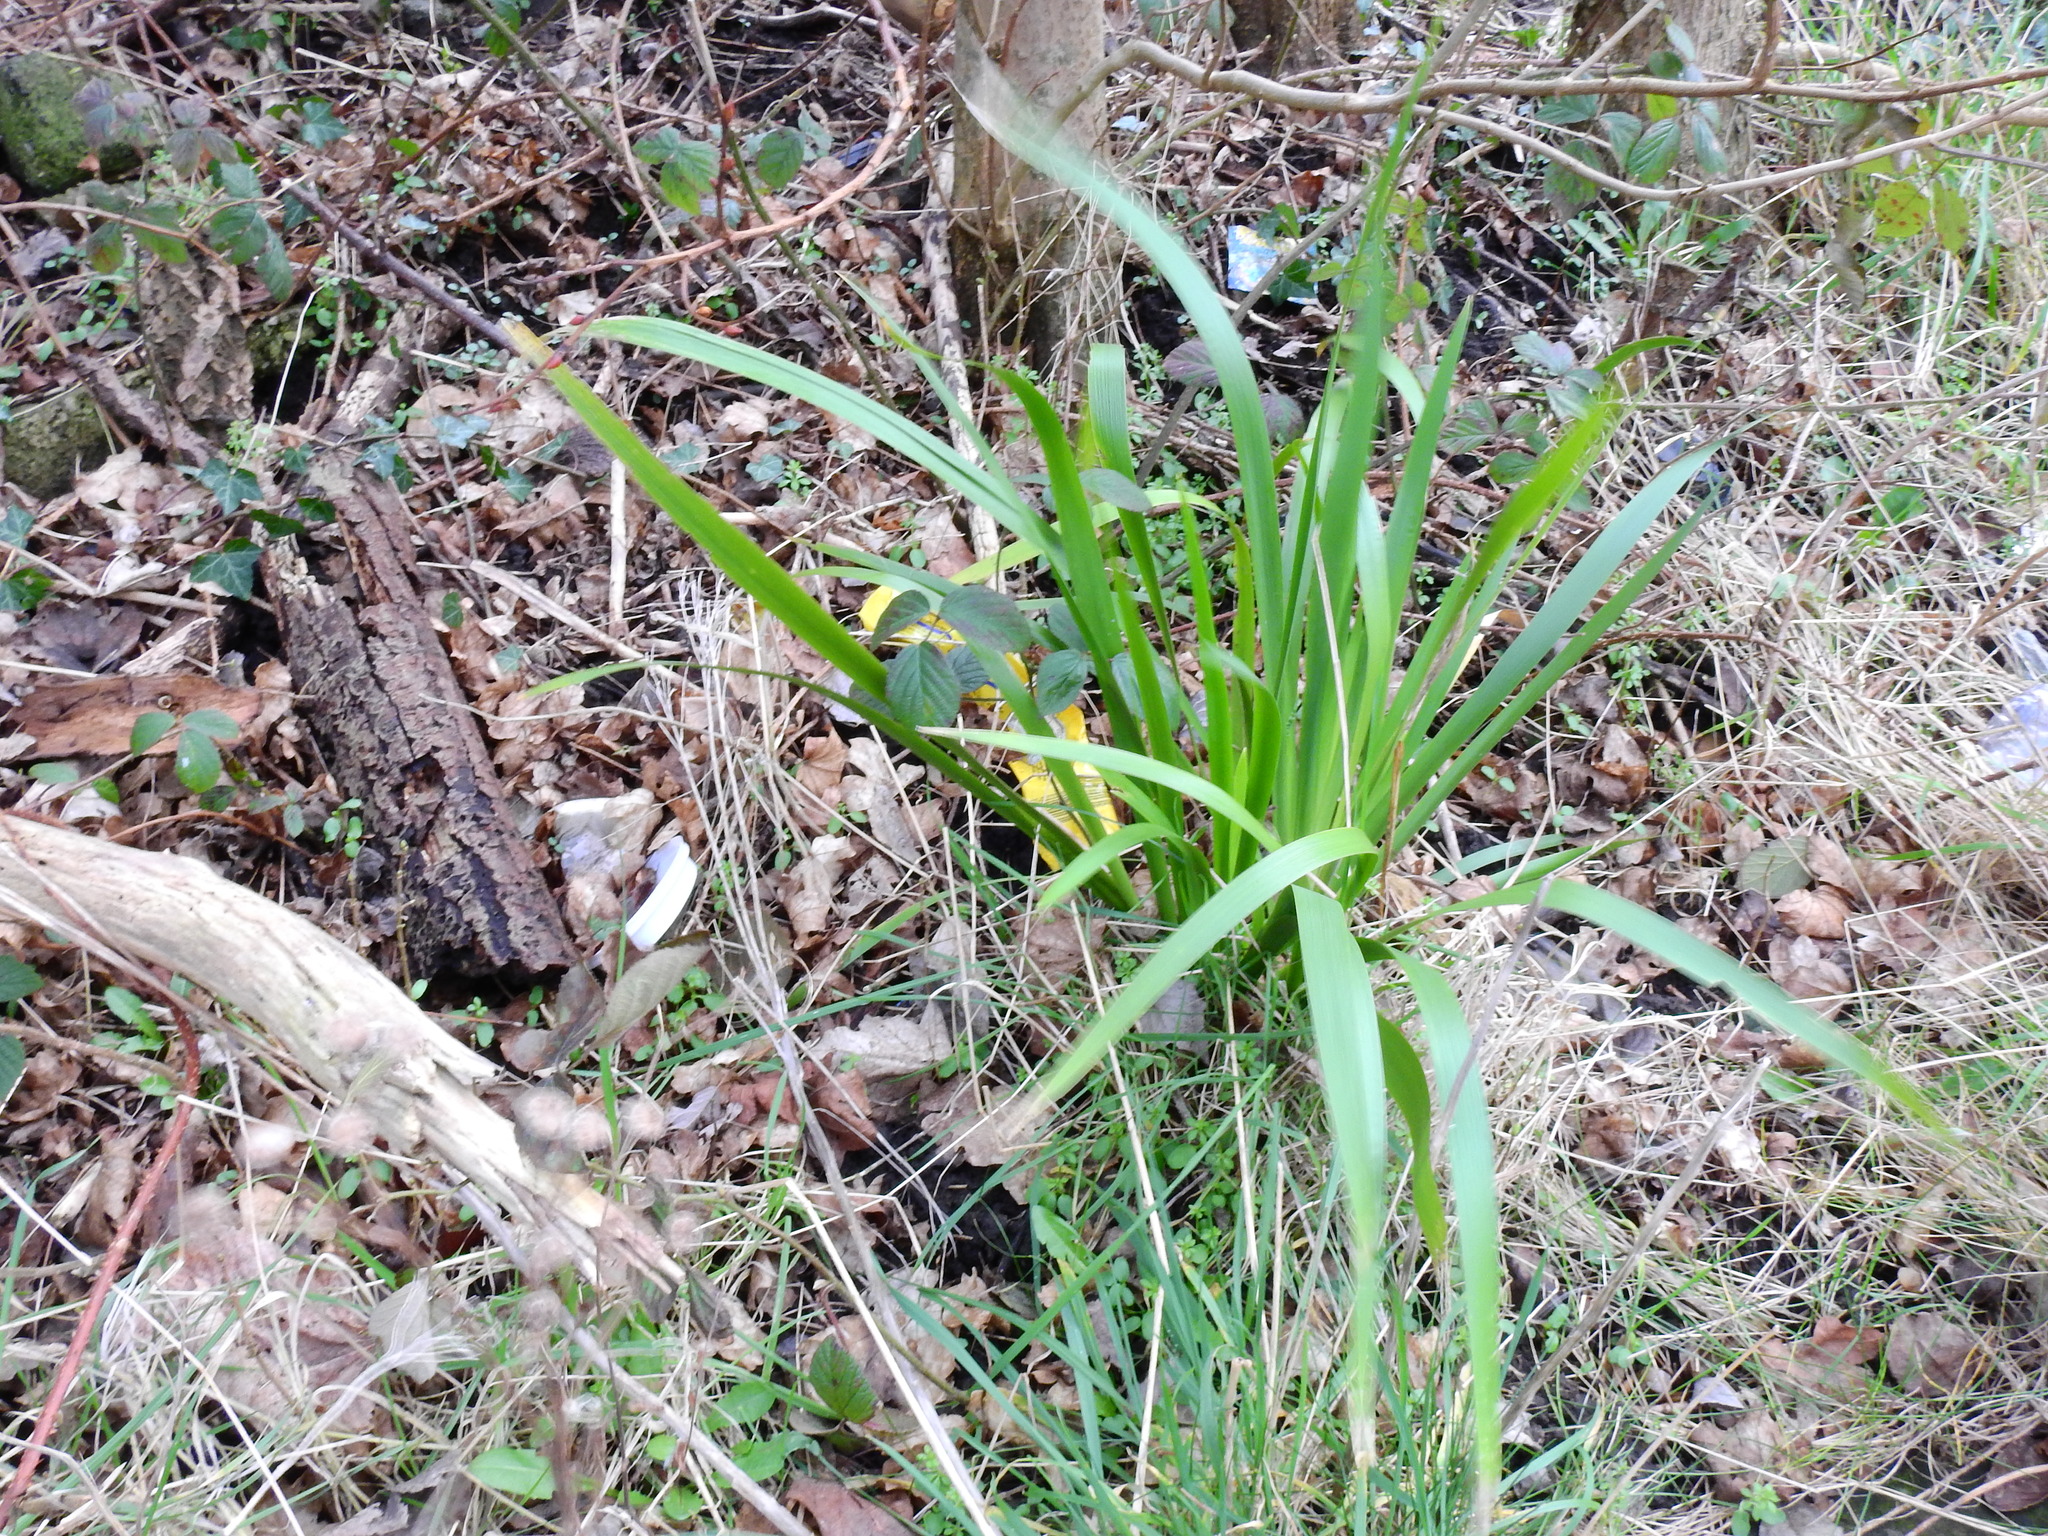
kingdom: Plantae
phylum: Tracheophyta
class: Liliopsida
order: Asparagales
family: Iridaceae
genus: Iris
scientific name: Iris foetidissima
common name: Stinking iris
